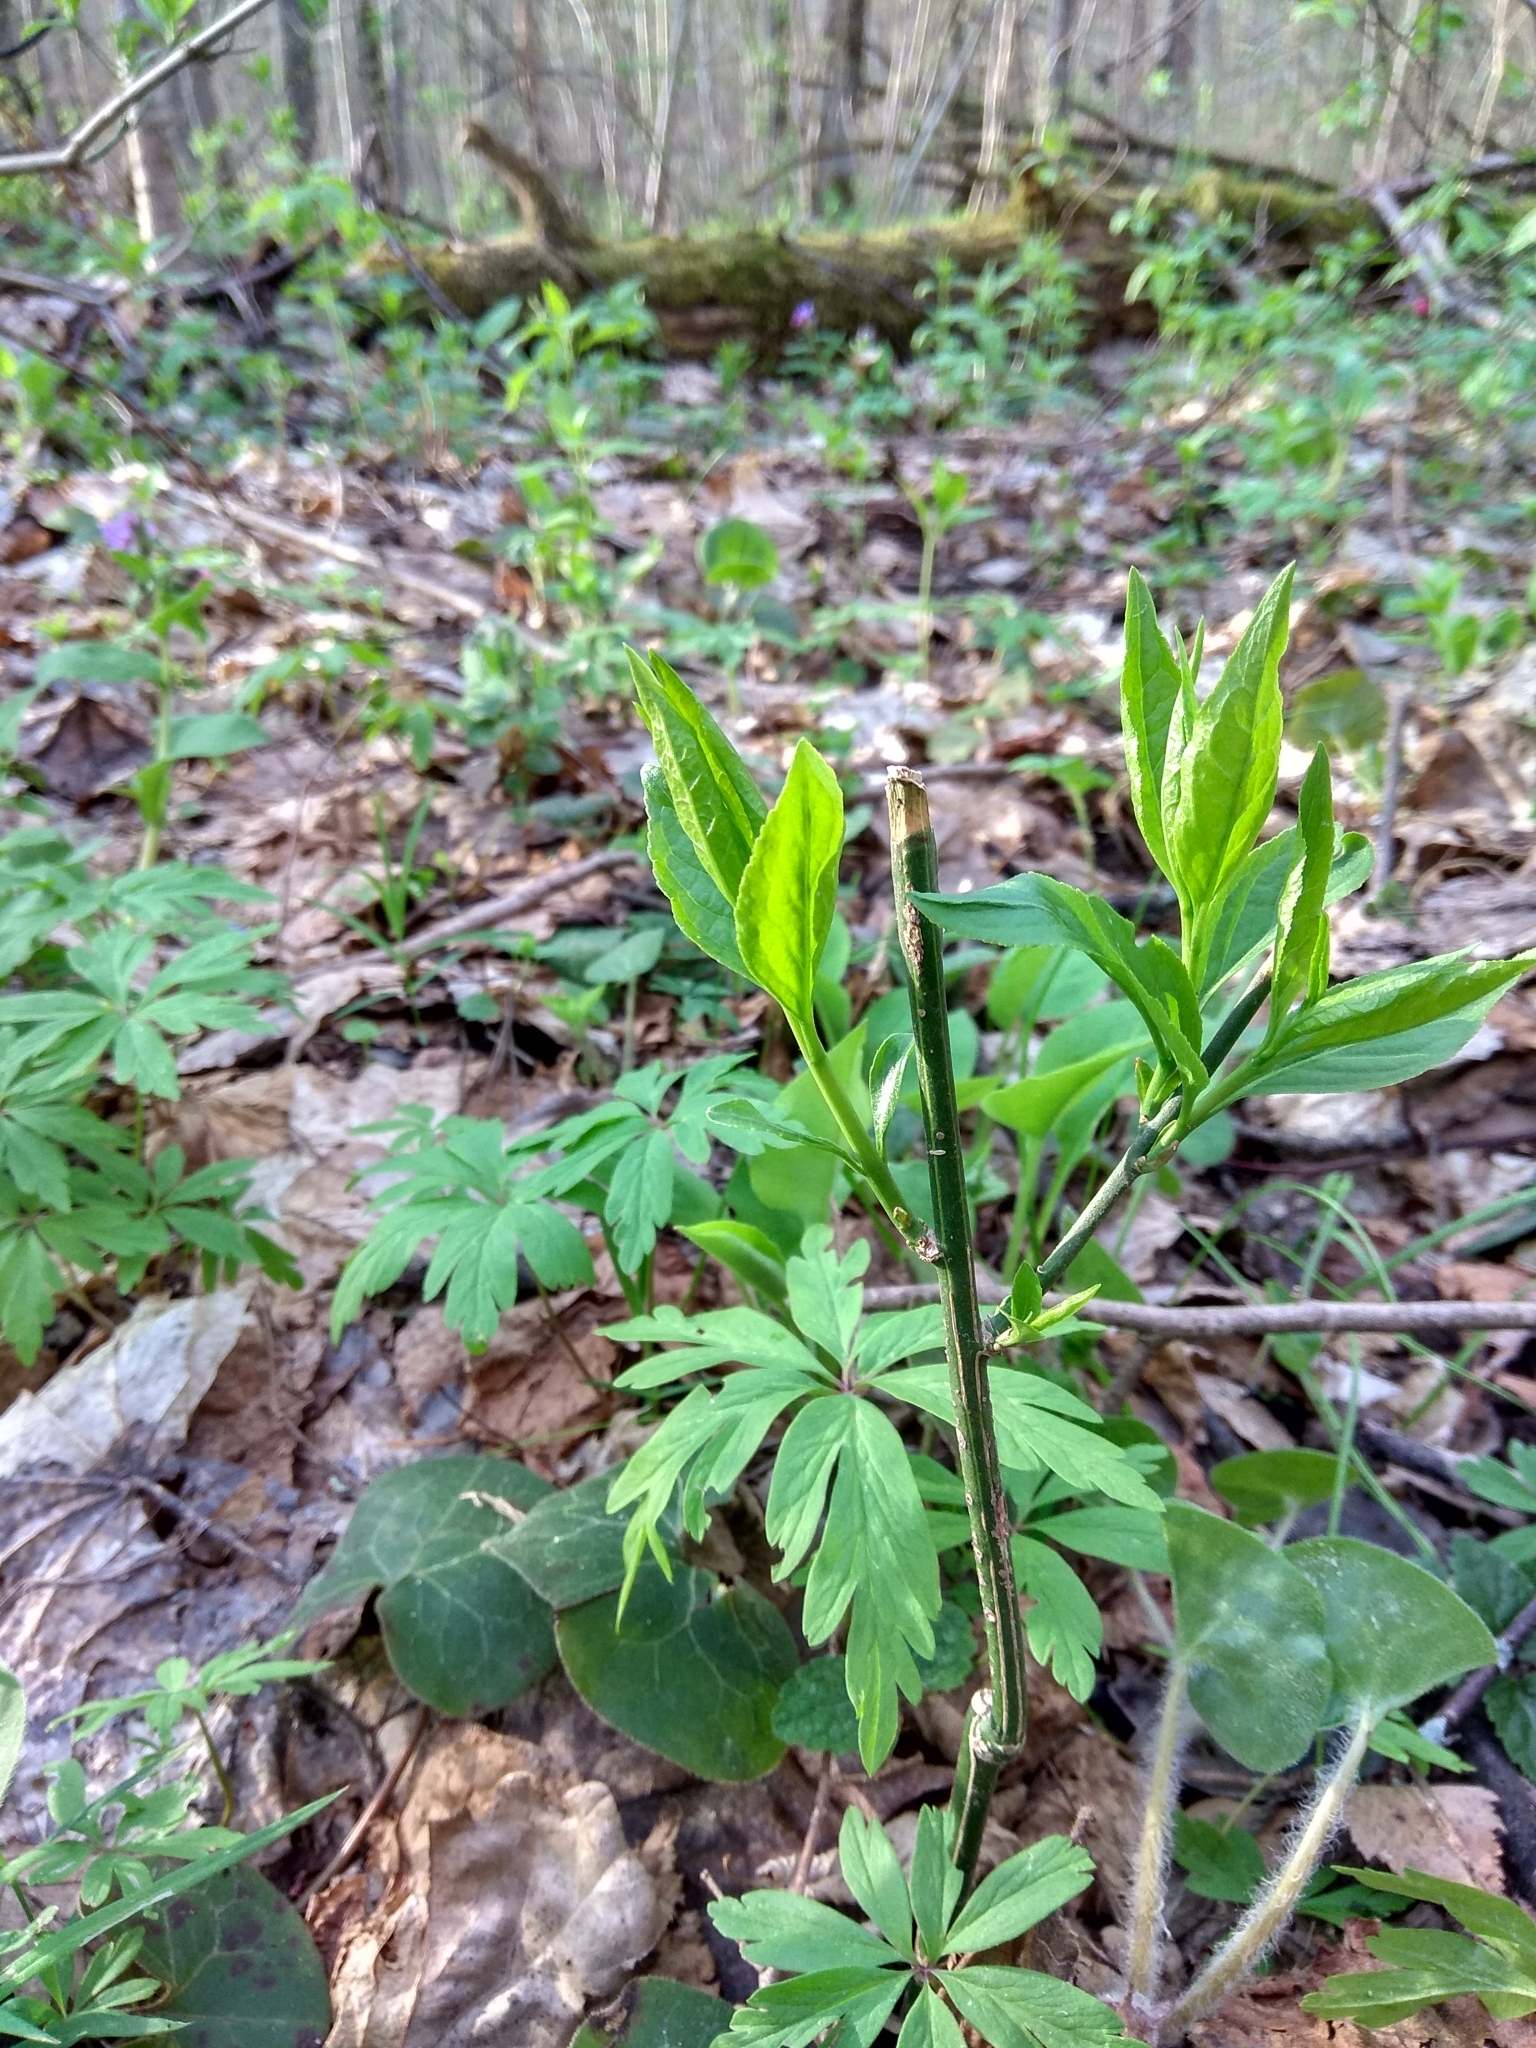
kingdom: Plantae
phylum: Tracheophyta
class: Magnoliopsida
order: Celastrales
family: Celastraceae
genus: Euonymus
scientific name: Euonymus europaeus
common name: Spindle
